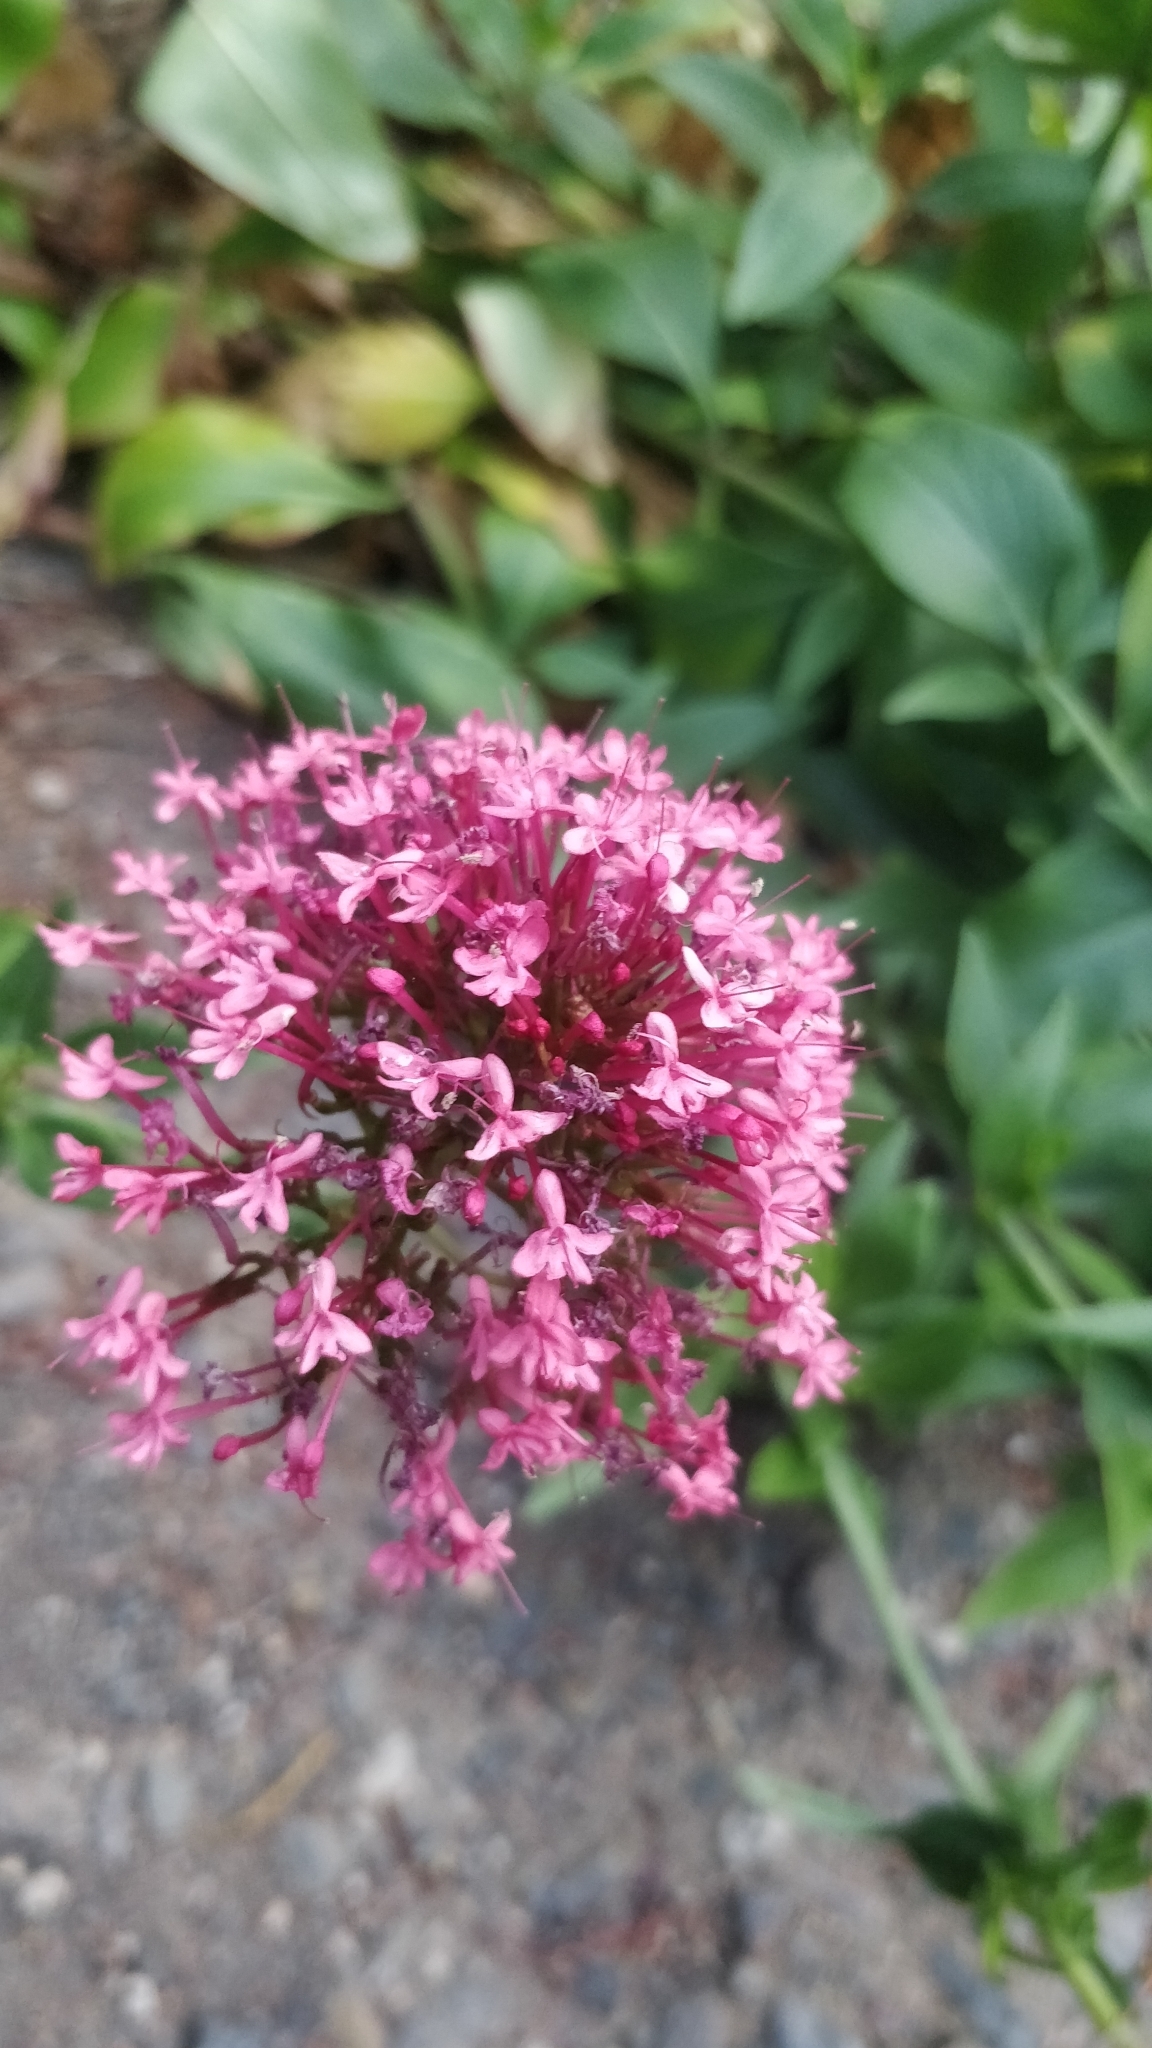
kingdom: Plantae
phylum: Tracheophyta
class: Magnoliopsida
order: Dipsacales
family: Caprifoliaceae
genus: Centranthus
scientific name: Centranthus ruber
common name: Red valerian
